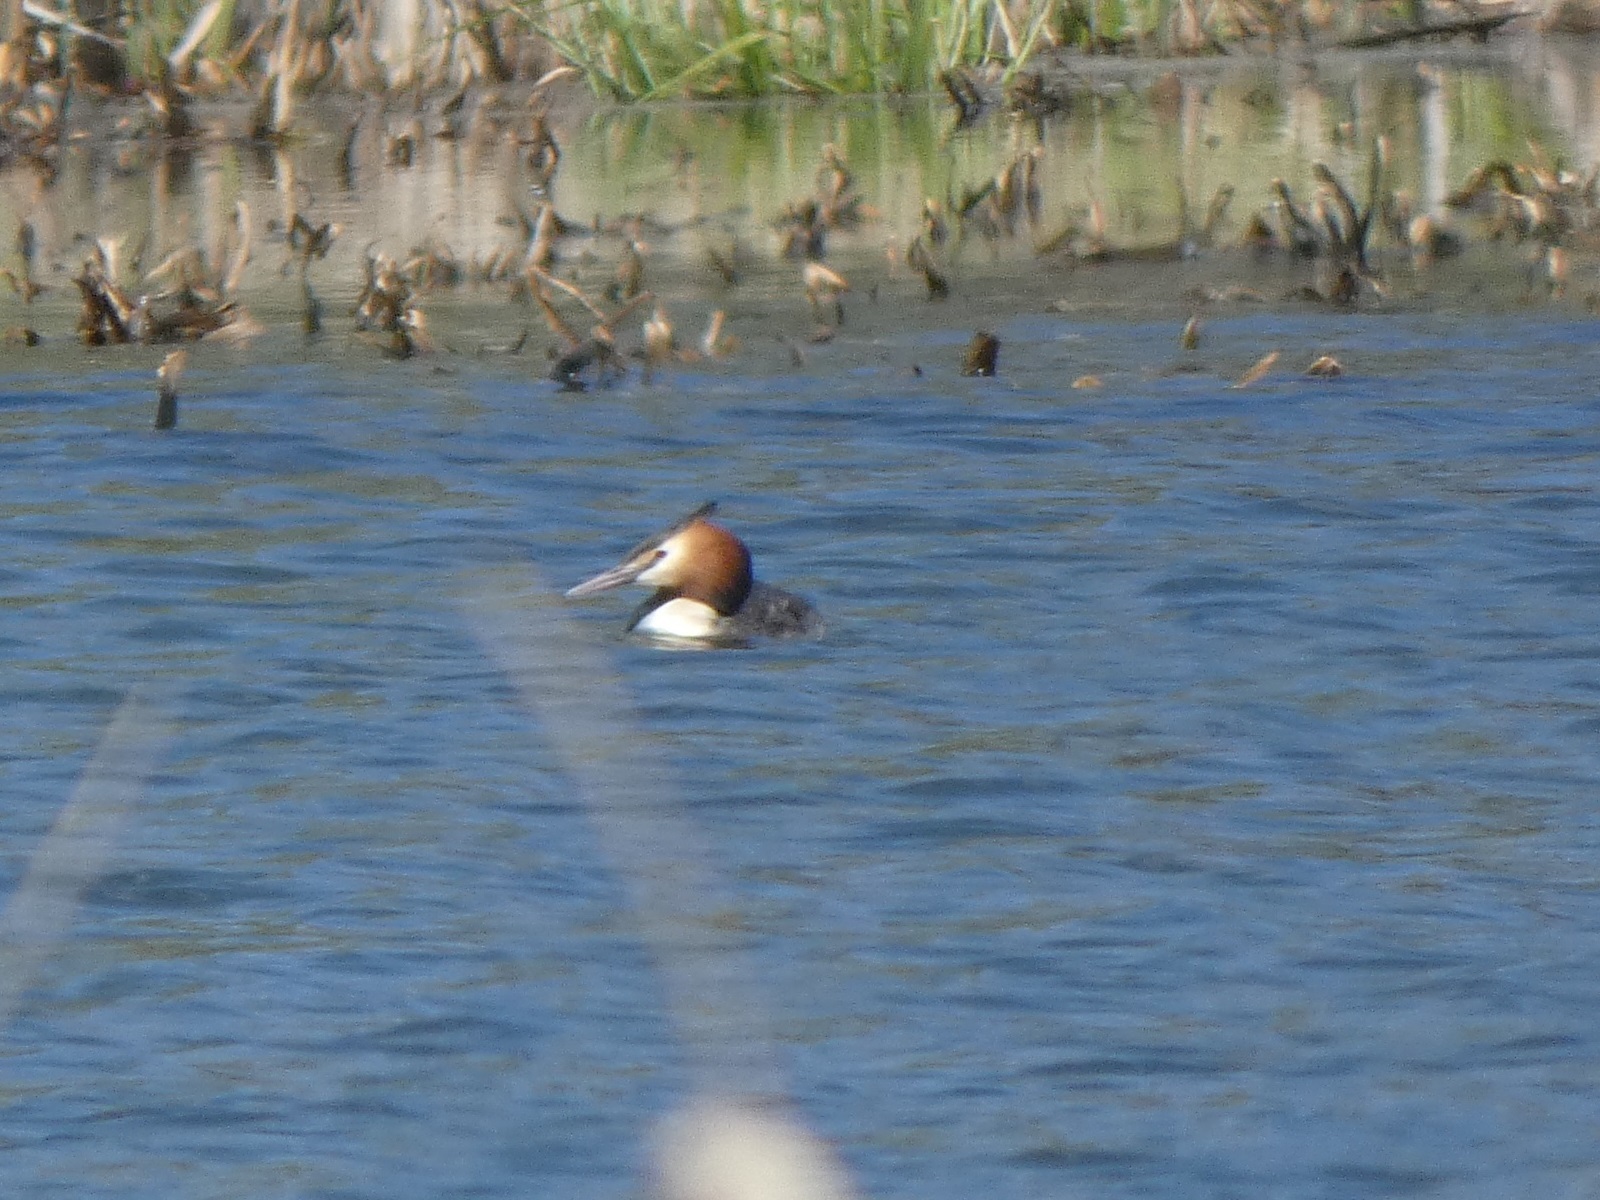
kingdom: Animalia
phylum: Chordata
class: Aves
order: Podicipediformes
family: Podicipedidae
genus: Podiceps
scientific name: Podiceps cristatus
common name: Great crested grebe
